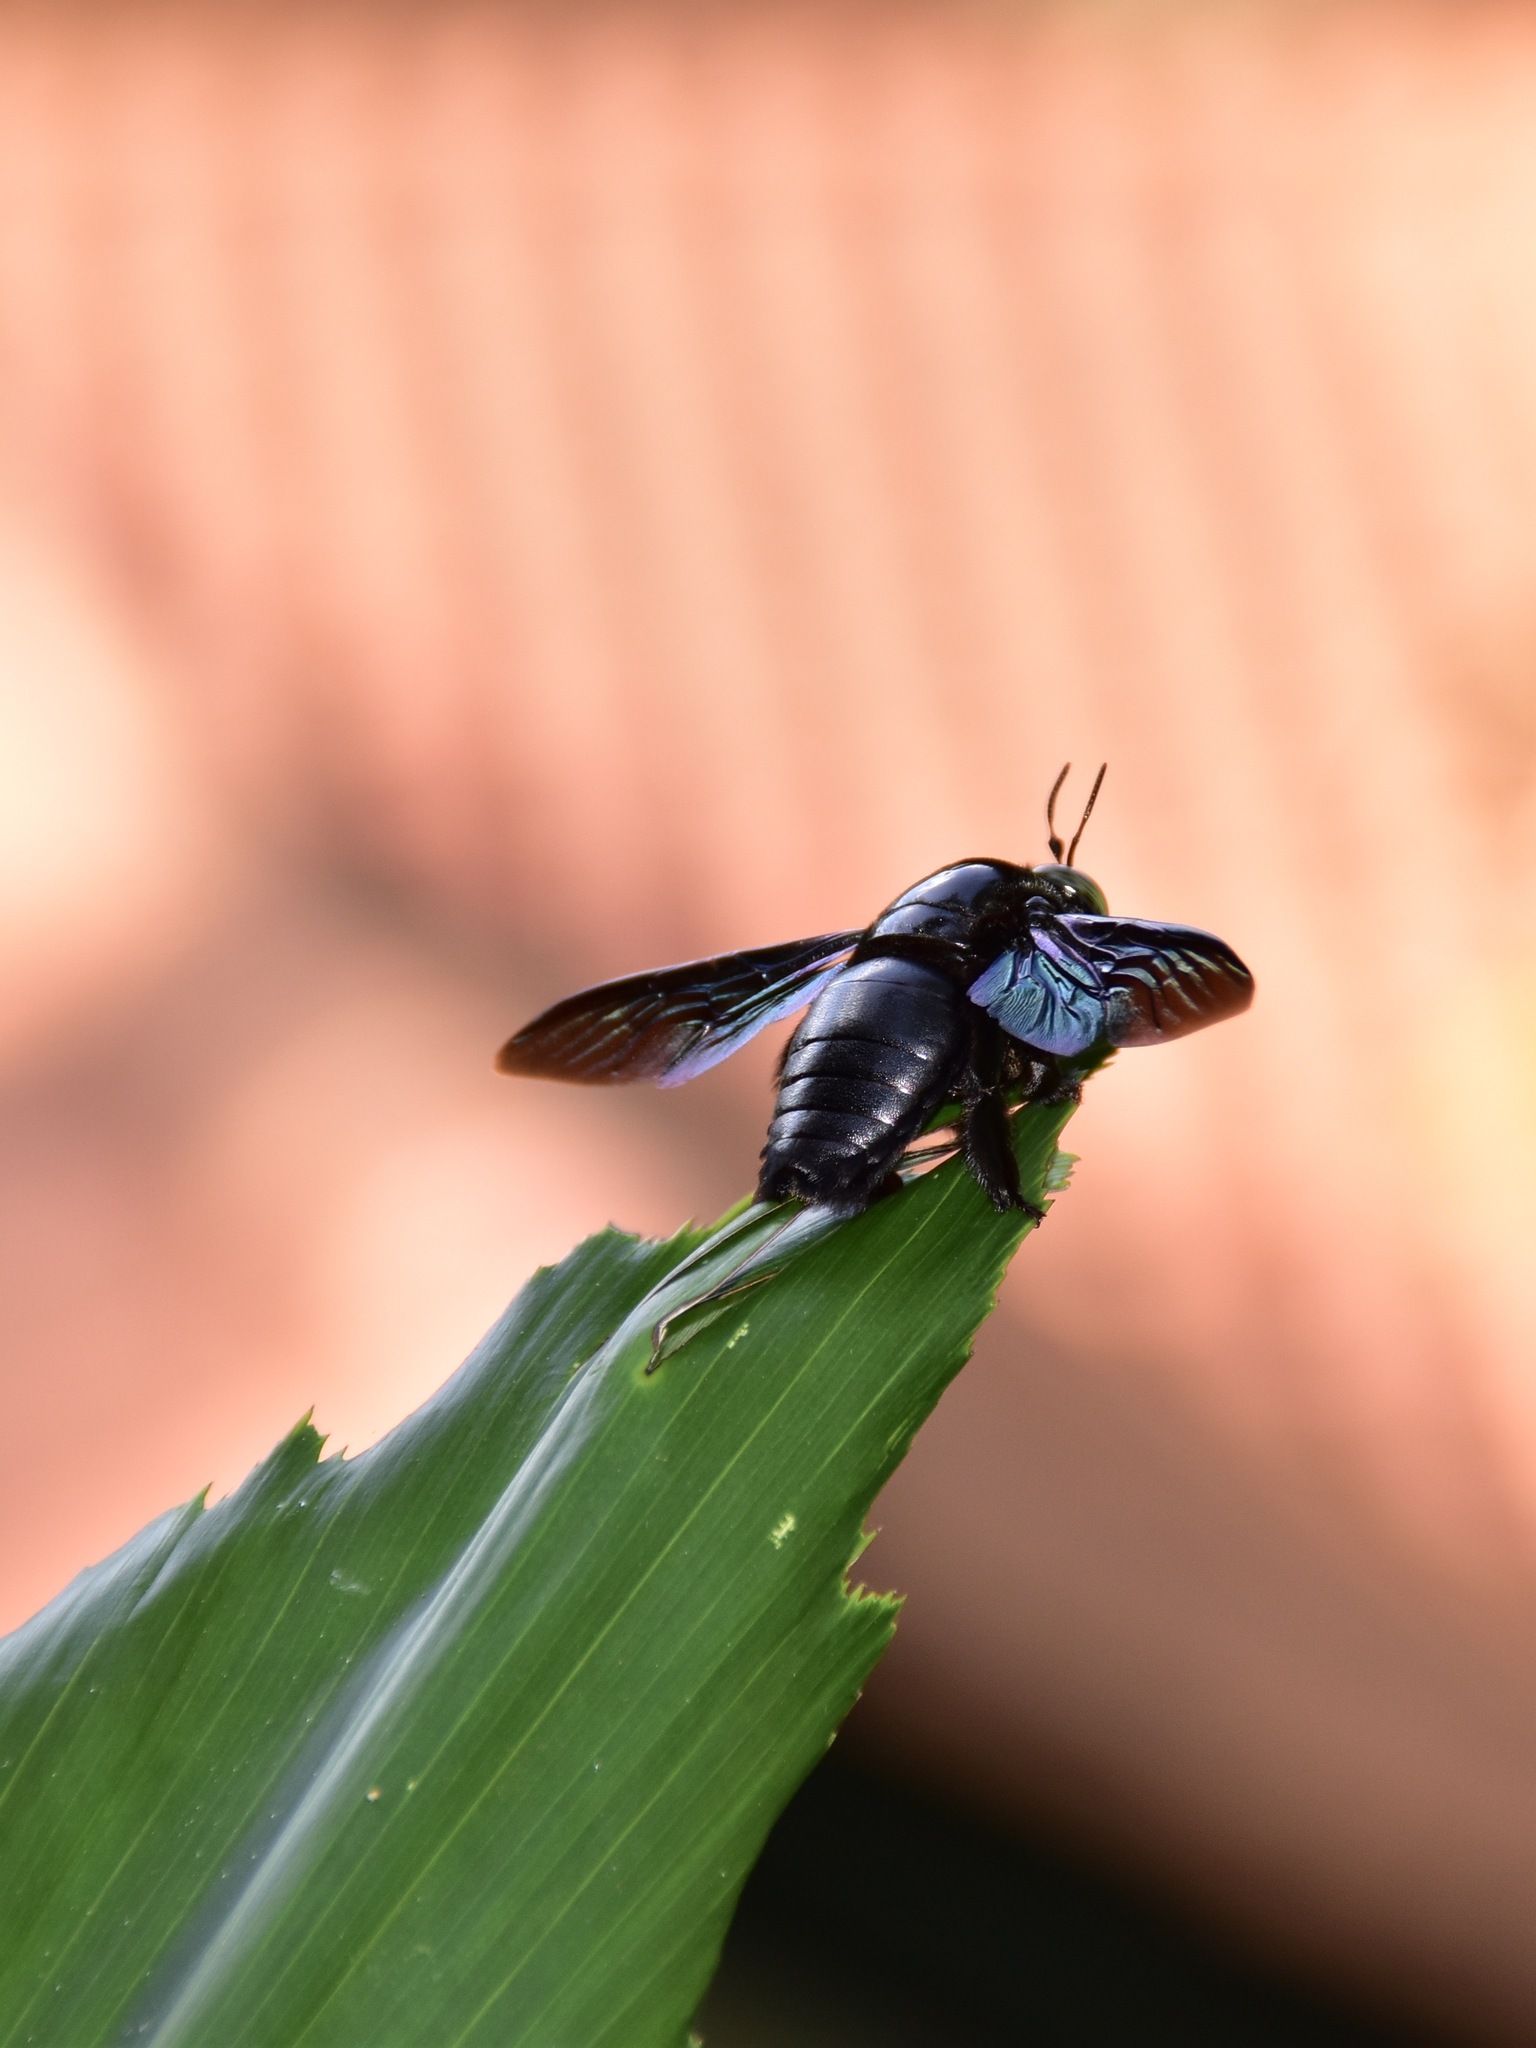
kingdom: Animalia
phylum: Arthropoda
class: Insecta
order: Hymenoptera
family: Apidae
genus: Xylocopa
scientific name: Xylocopa latipes
